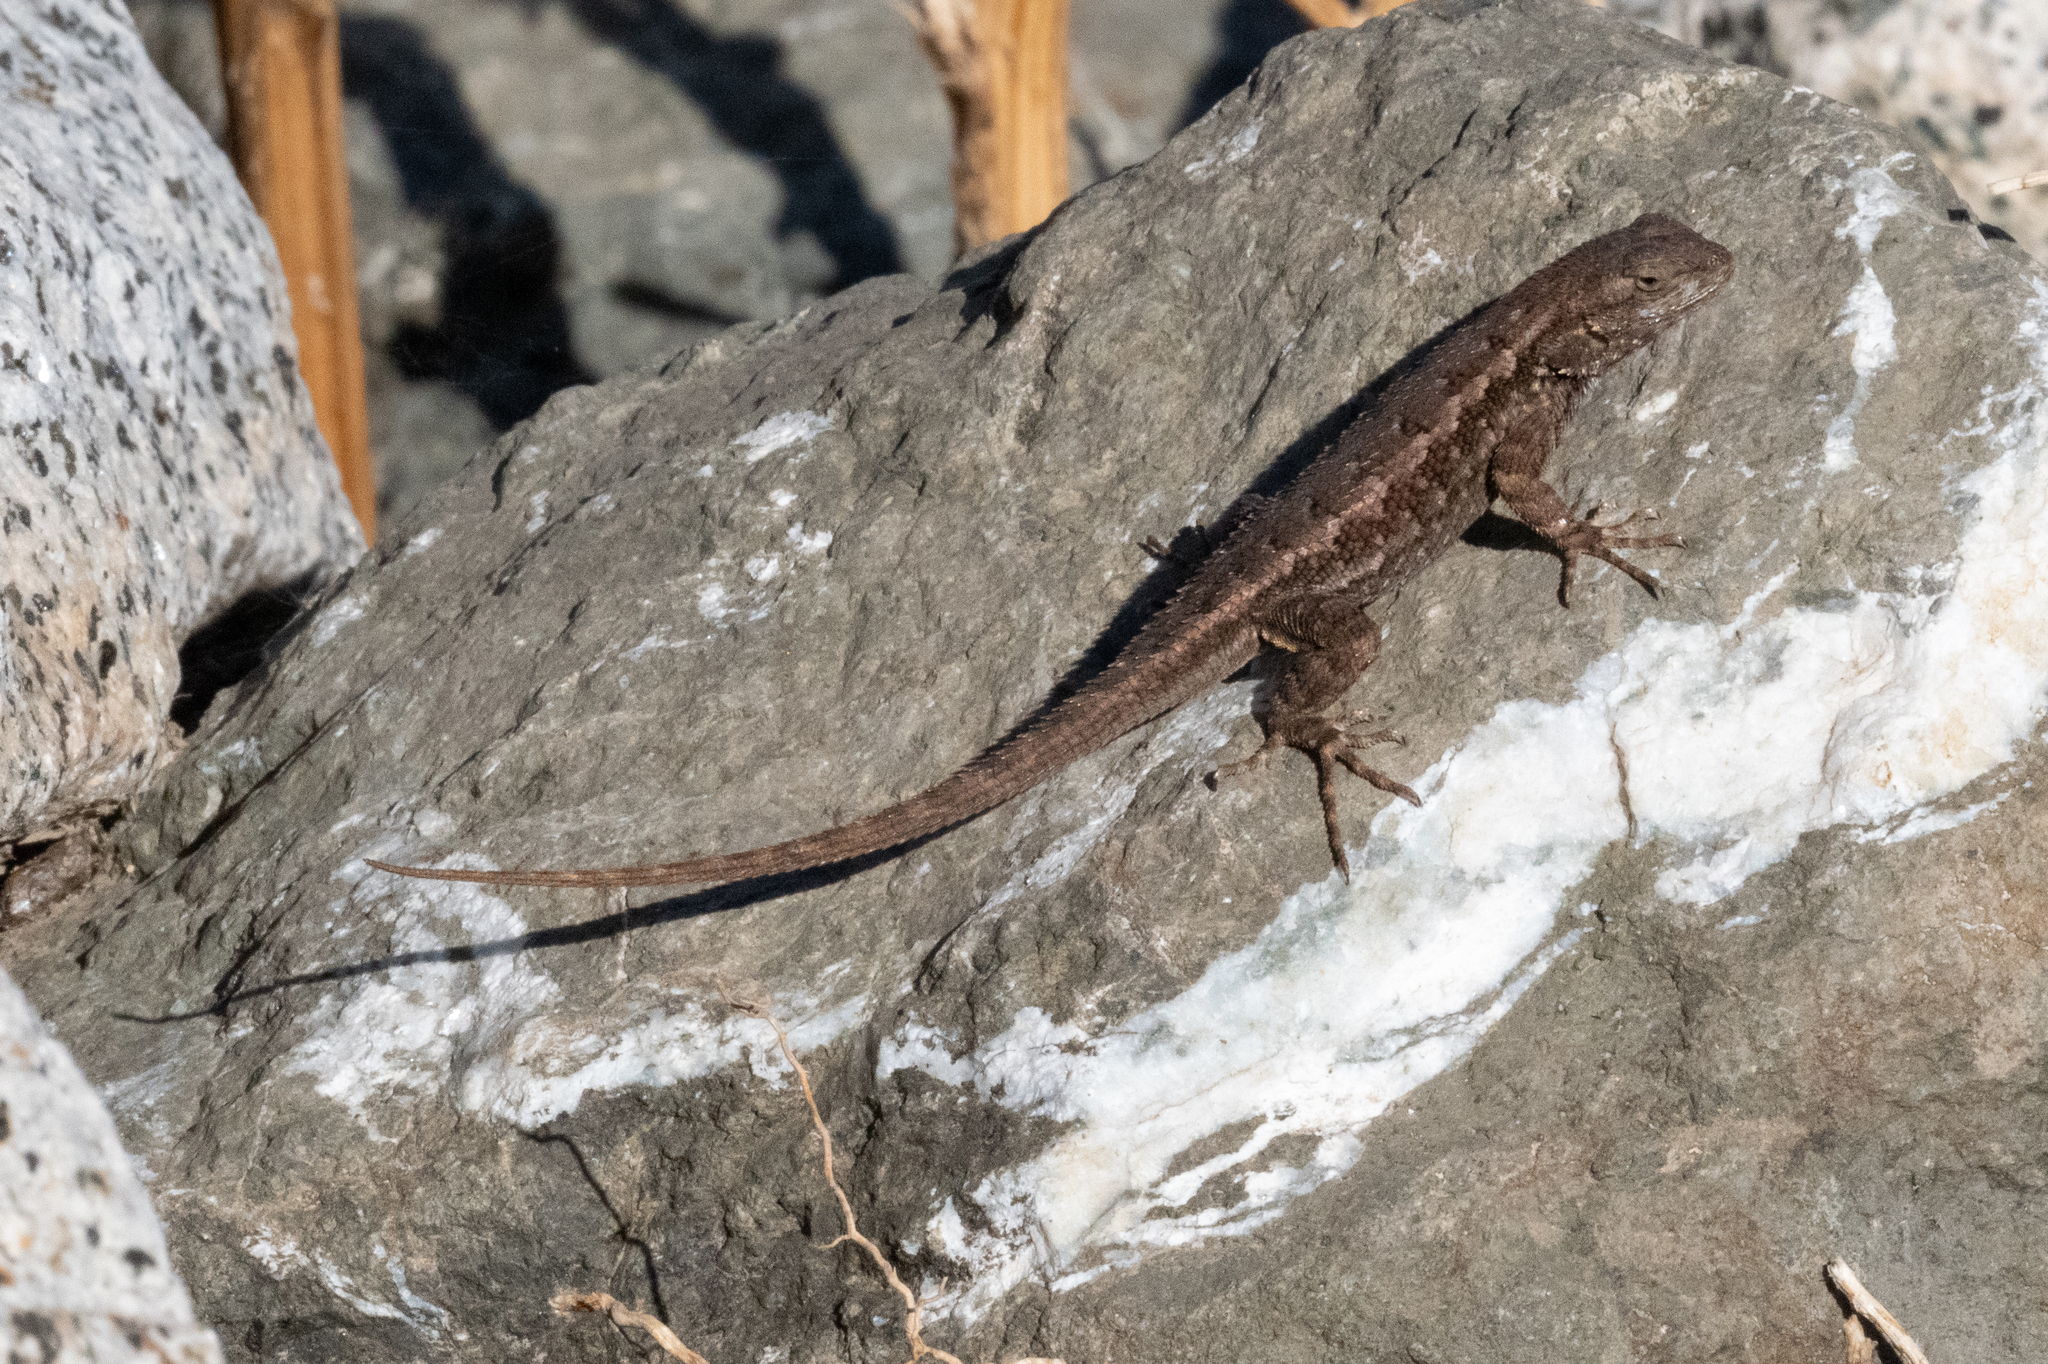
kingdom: Animalia
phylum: Chordata
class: Squamata
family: Phrynosomatidae
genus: Sceloporus
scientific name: Sceloporus occidentalis
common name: Western fence lizard
